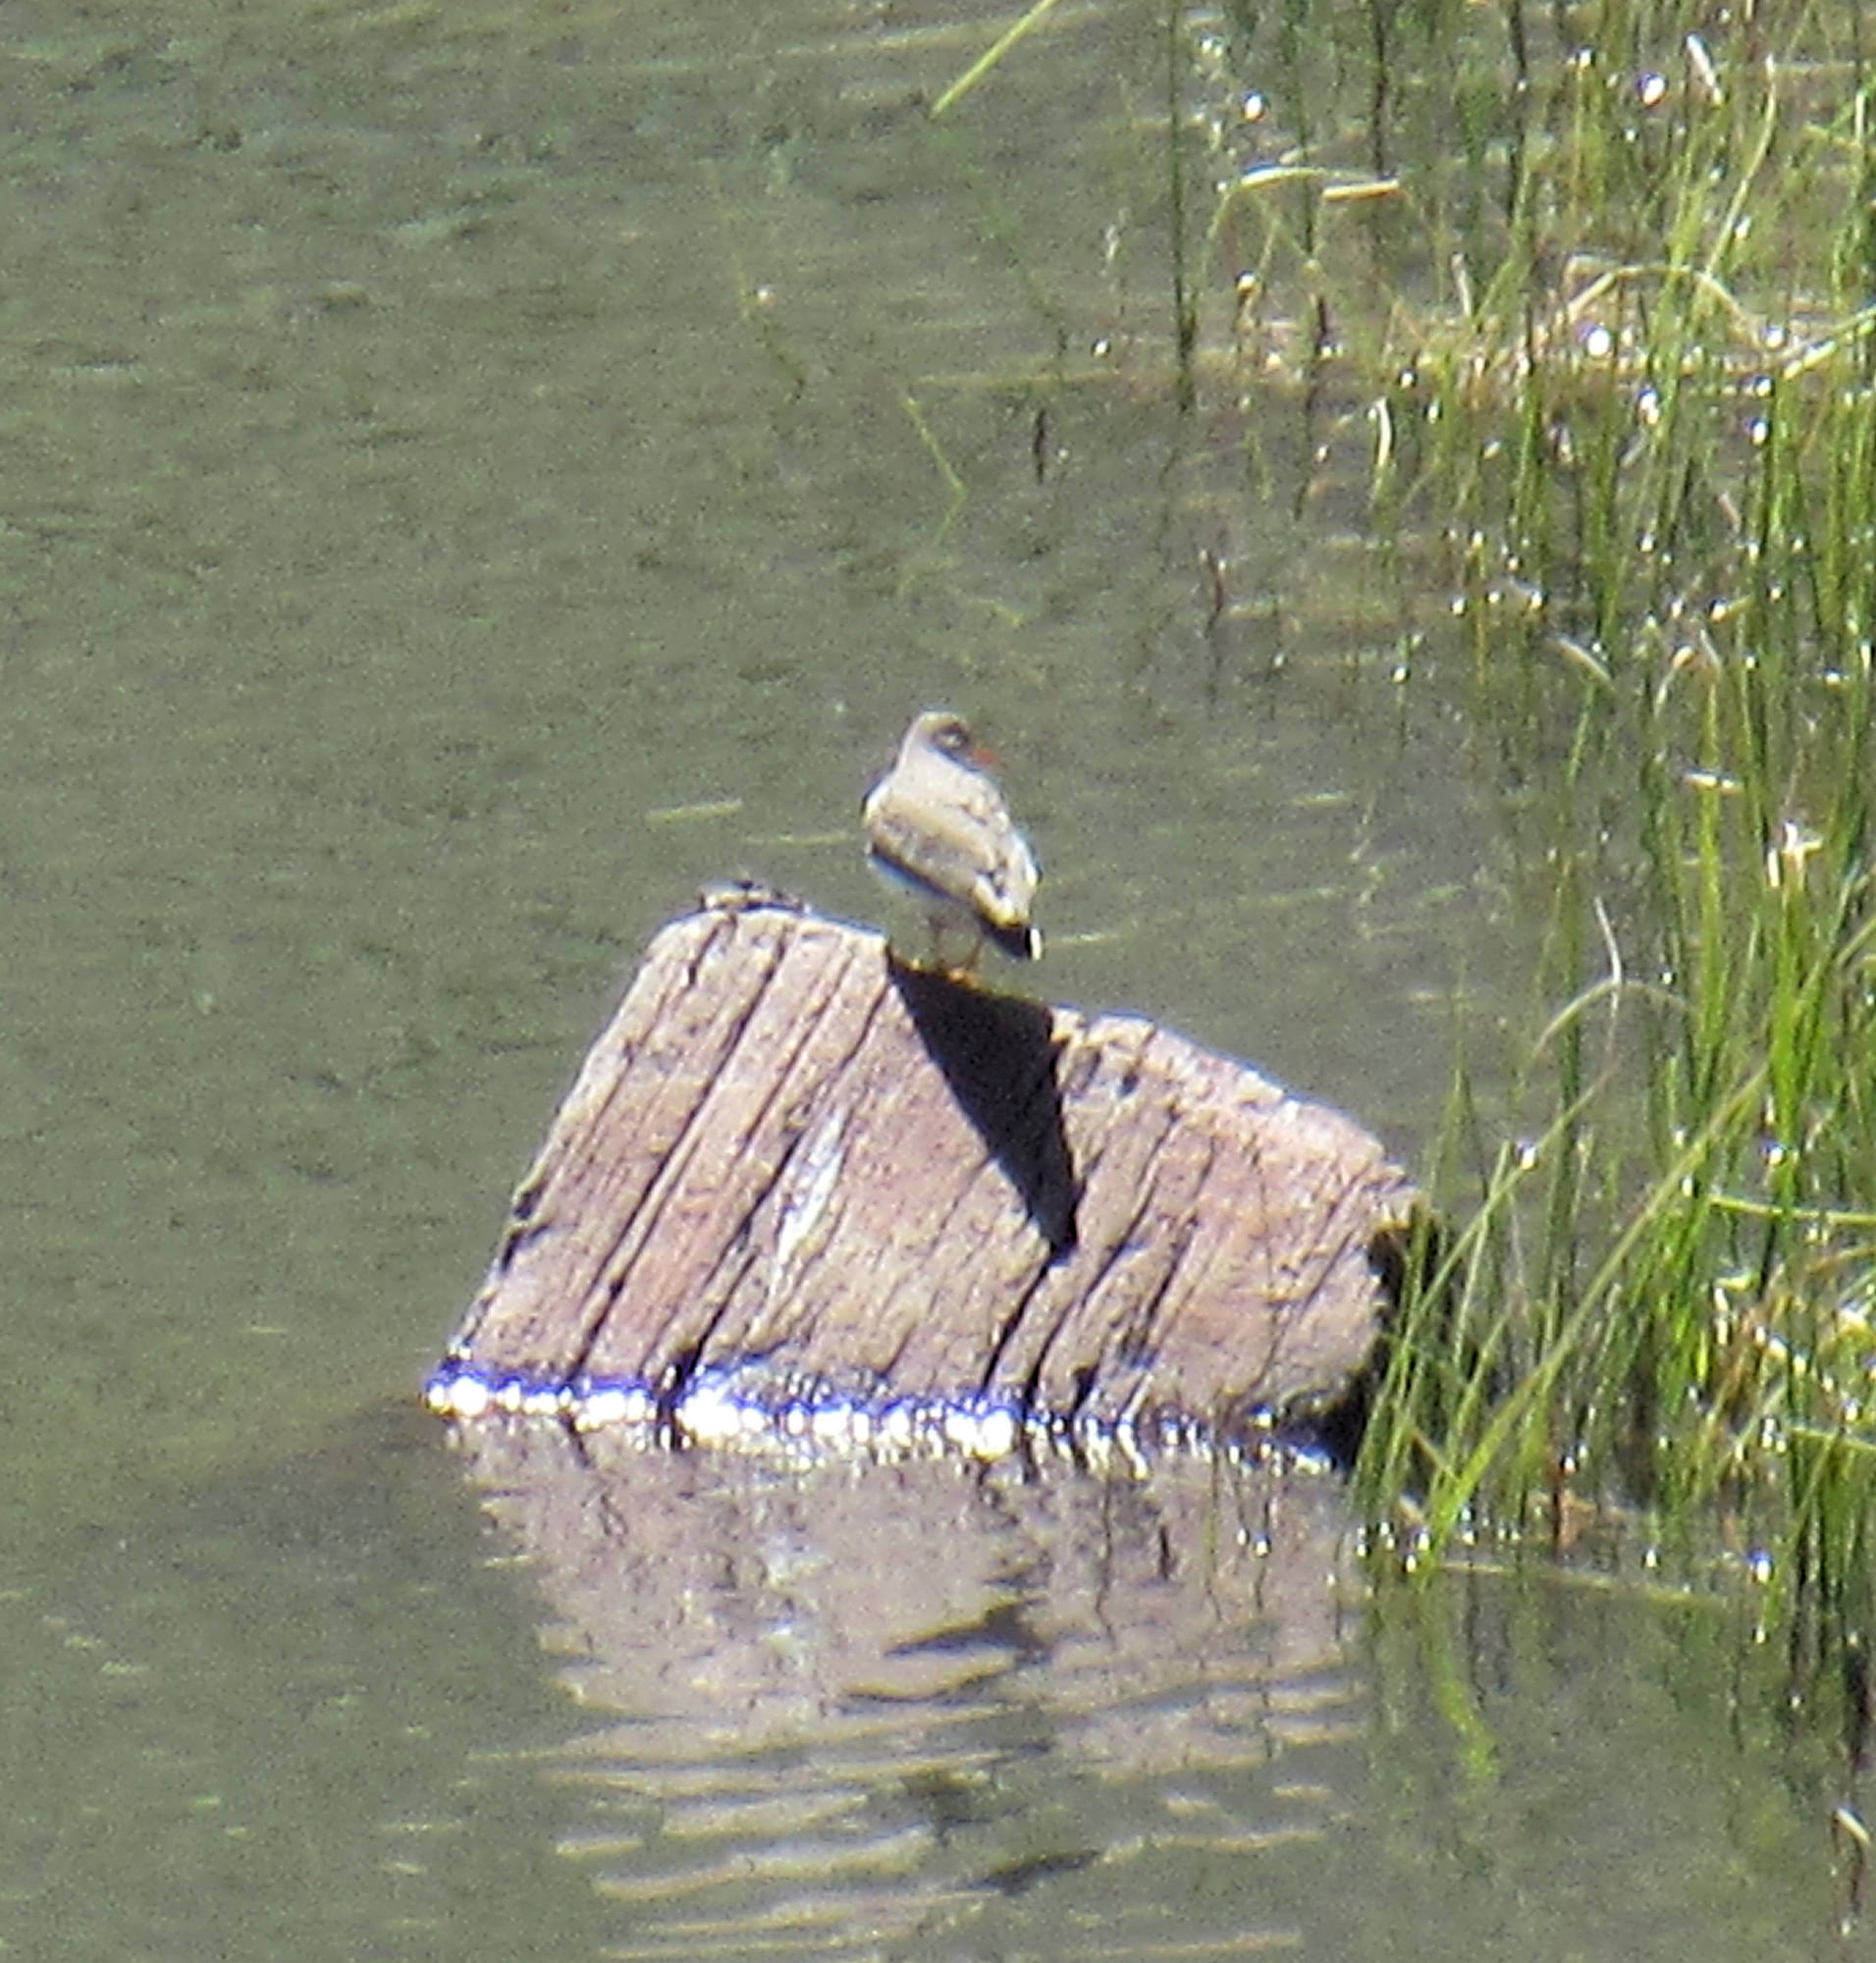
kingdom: Animalia
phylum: Chordata
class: Aves
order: Charadriiformes
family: Scolopacidae
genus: Actitis
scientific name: Actitis macularius
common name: Spotted sandpiper
